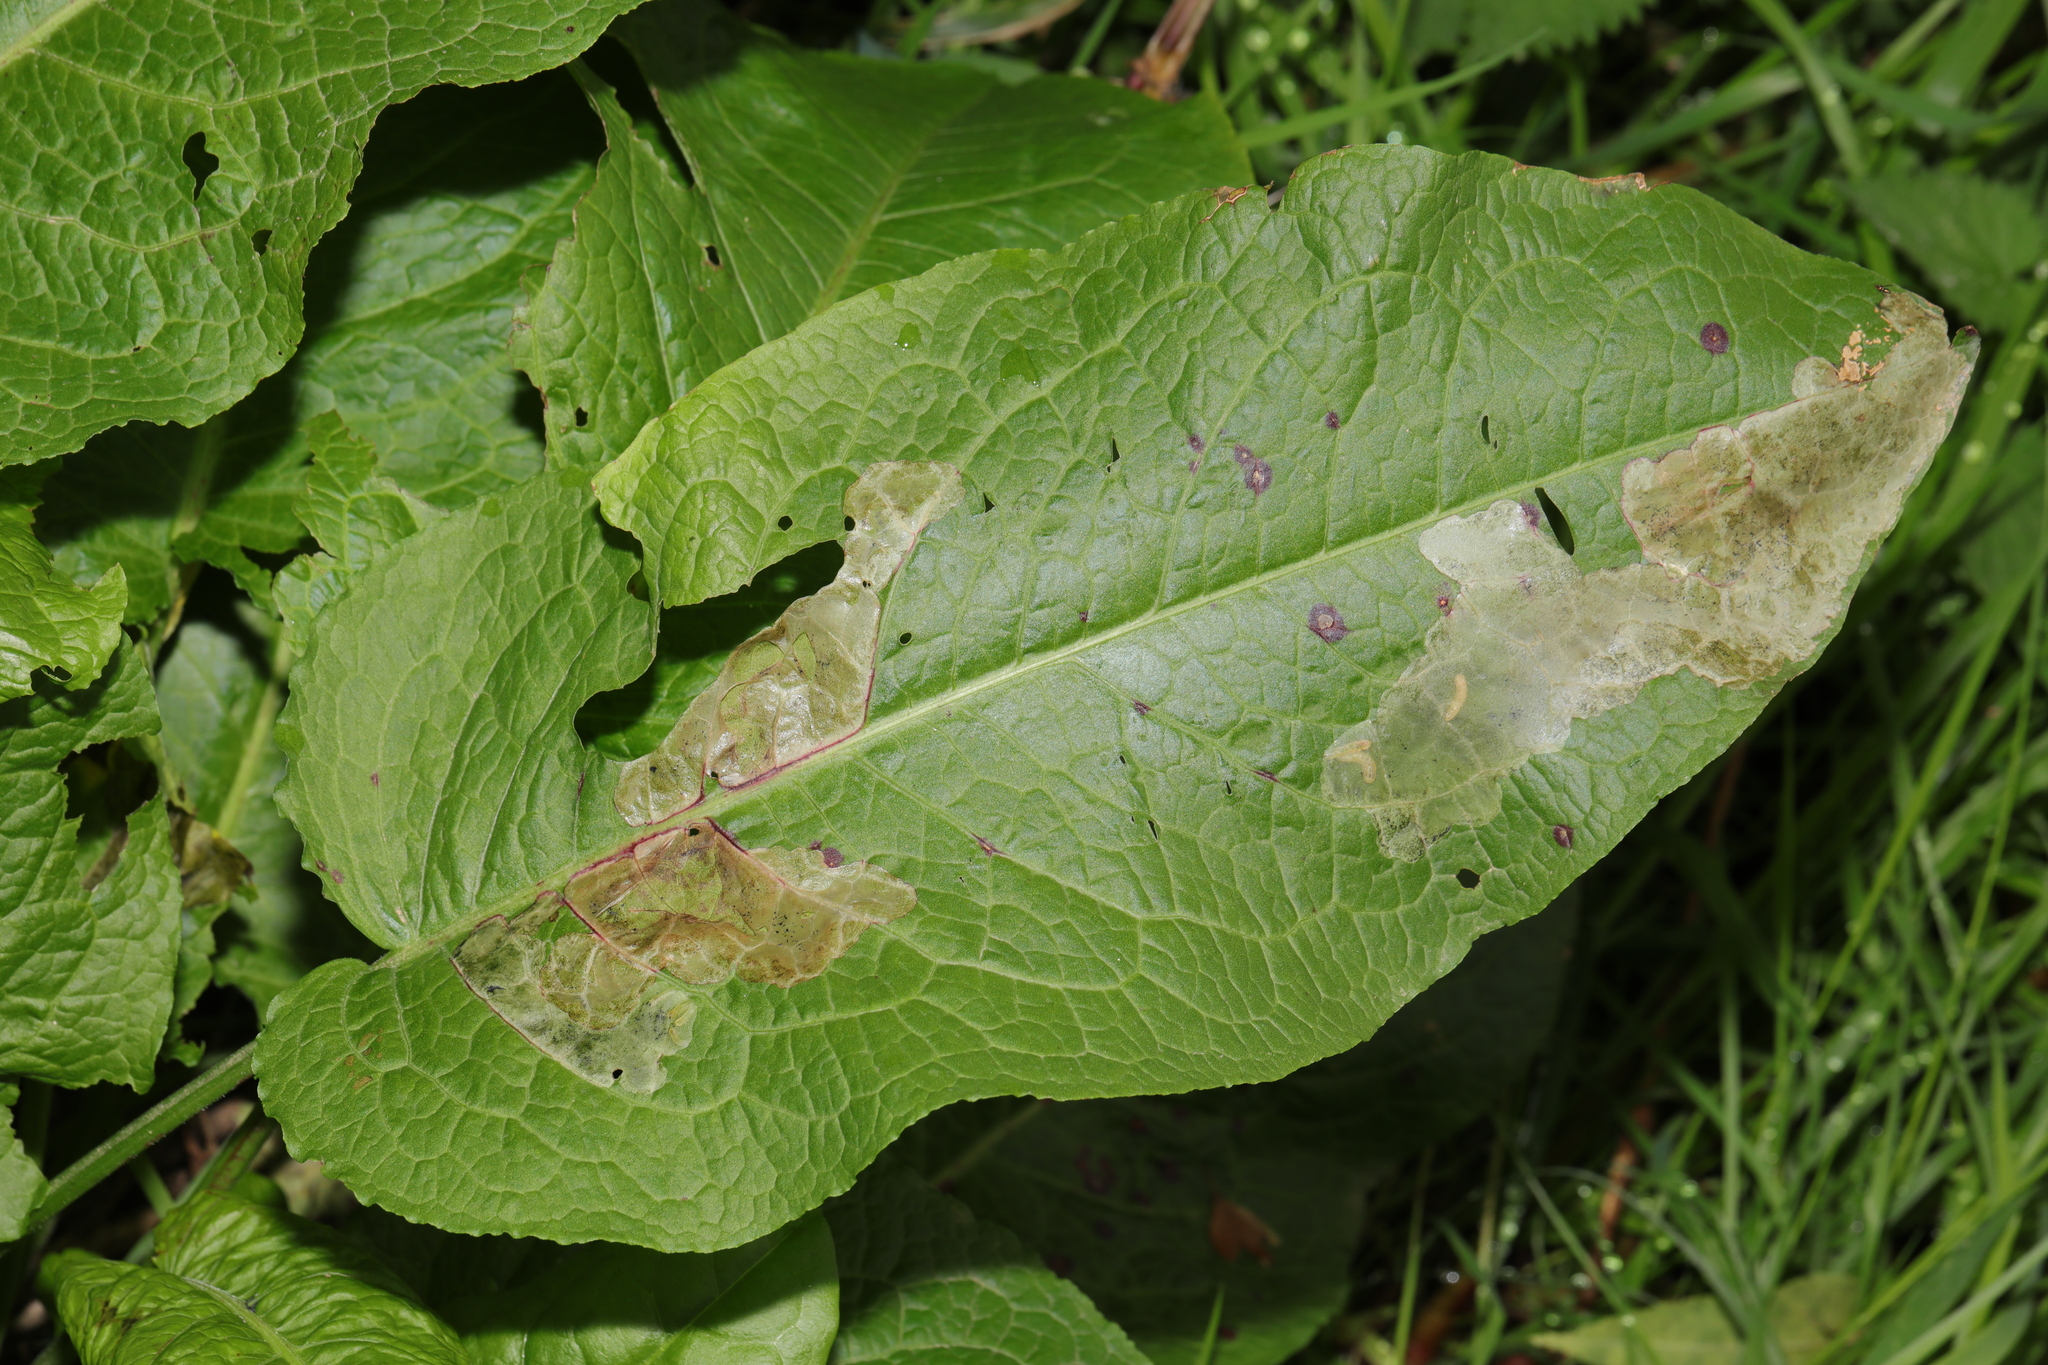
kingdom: Plantae
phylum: Tracheophyta
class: Magnoliopsida
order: Caryophyllales
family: Polygonaceae
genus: Rumex
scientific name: Rumex obtusifolius
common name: Bitter dock
